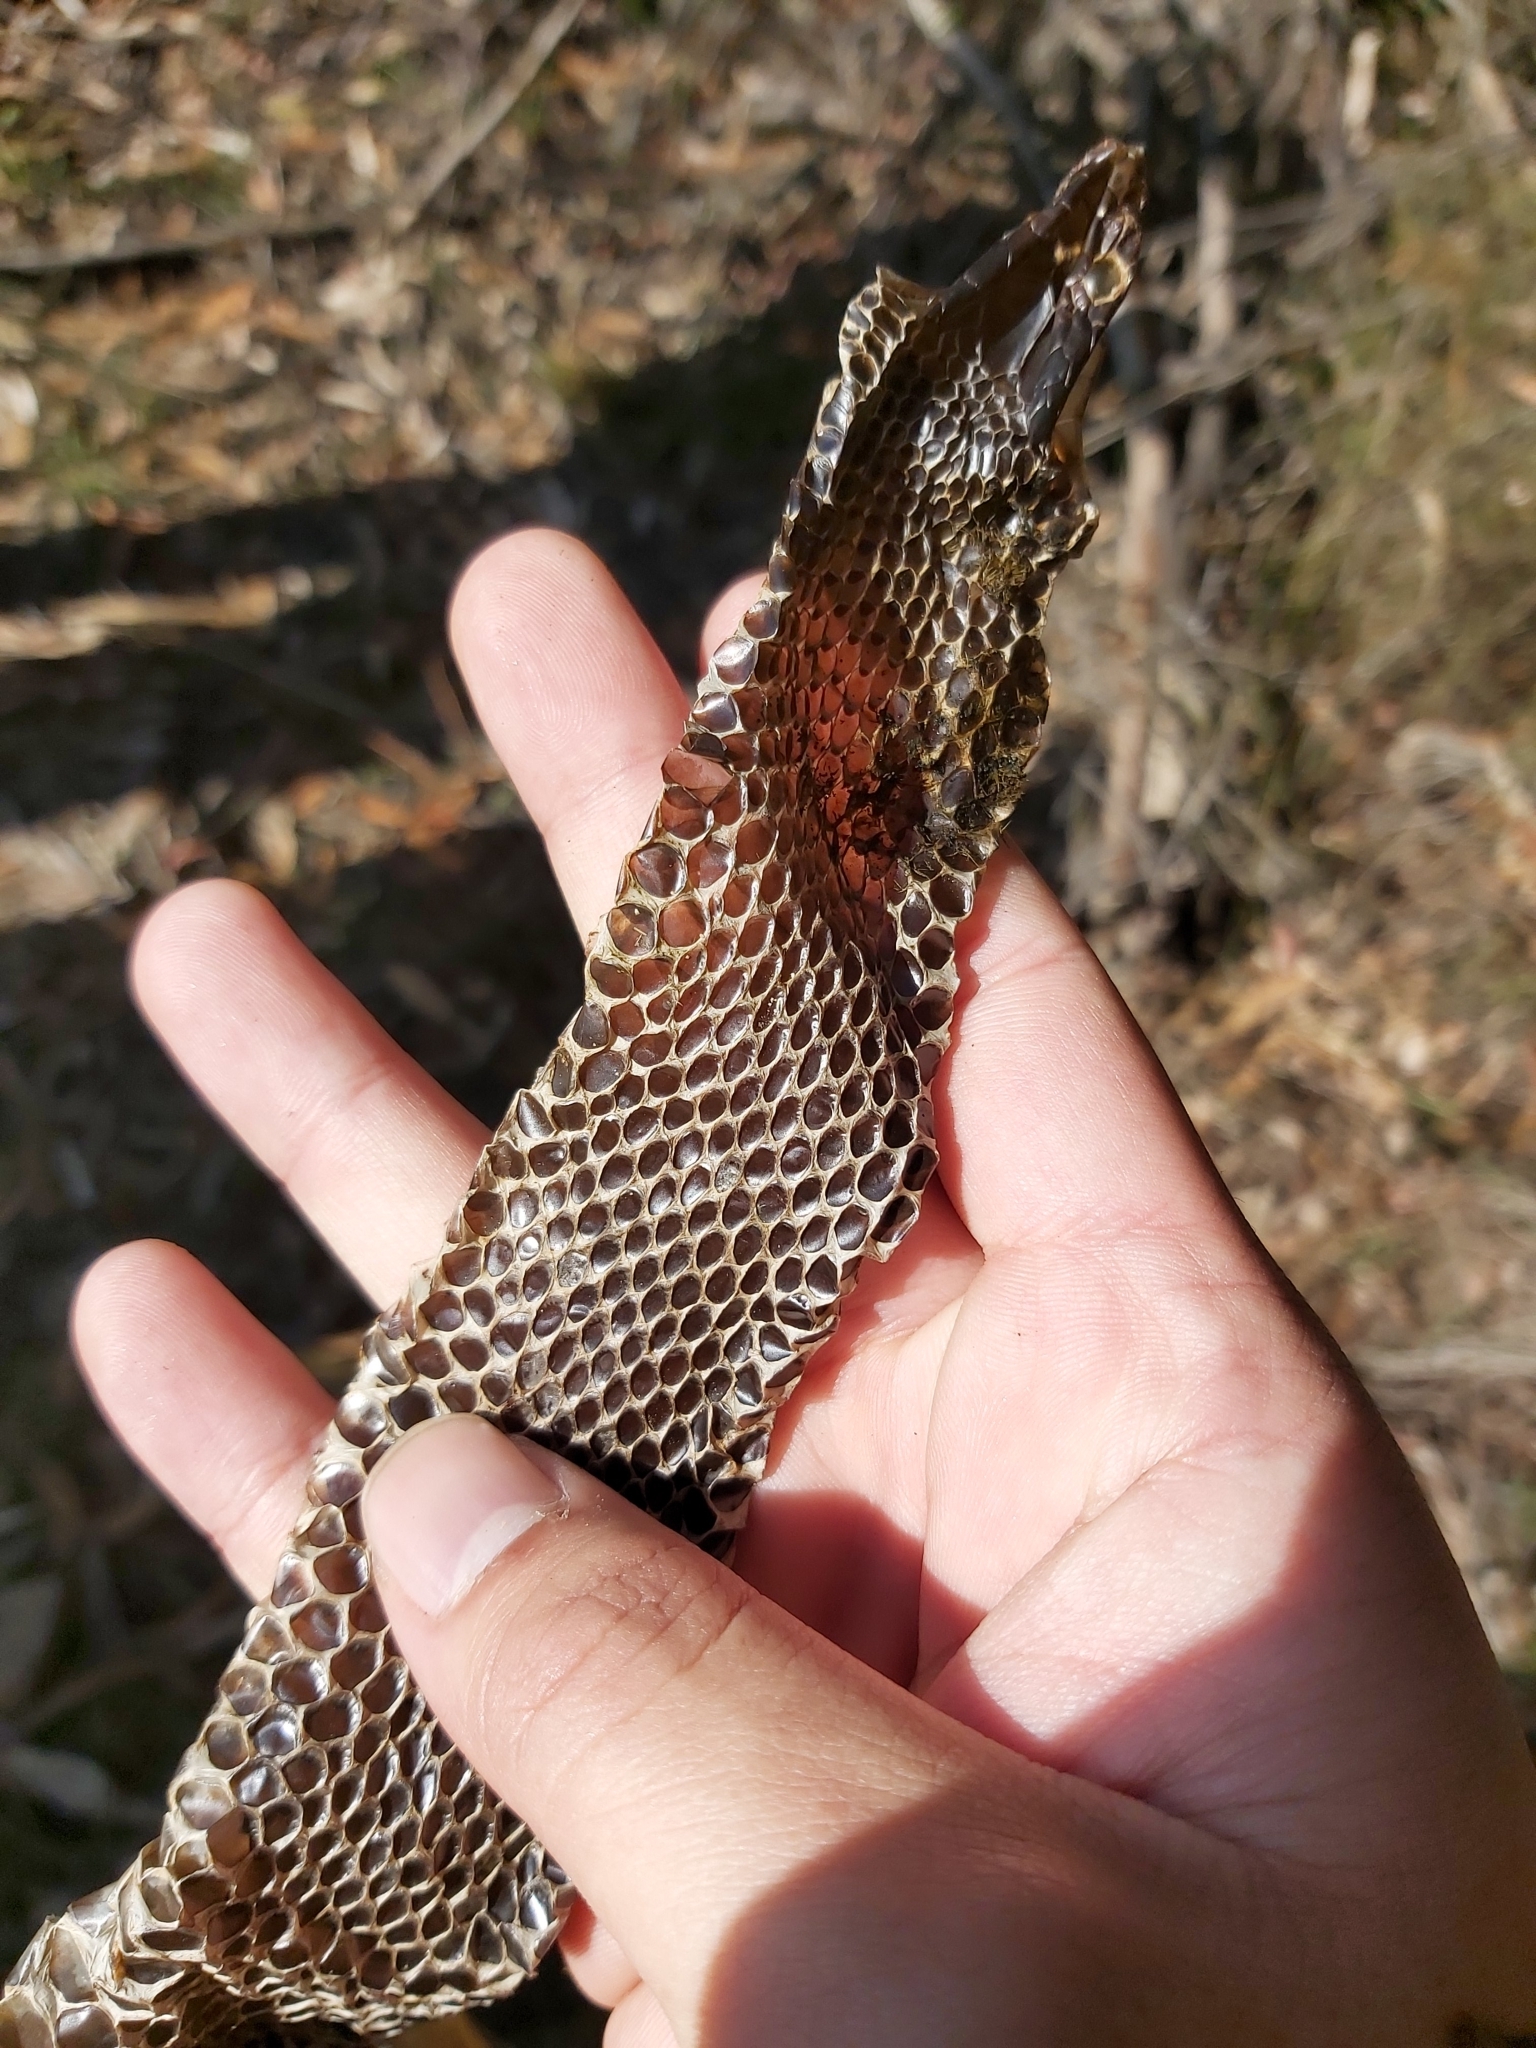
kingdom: Animalia
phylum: Chordata
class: Squamata
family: Elapidae
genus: Pseudechis
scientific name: Pseudechis porphyriacus
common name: Australian black snake
